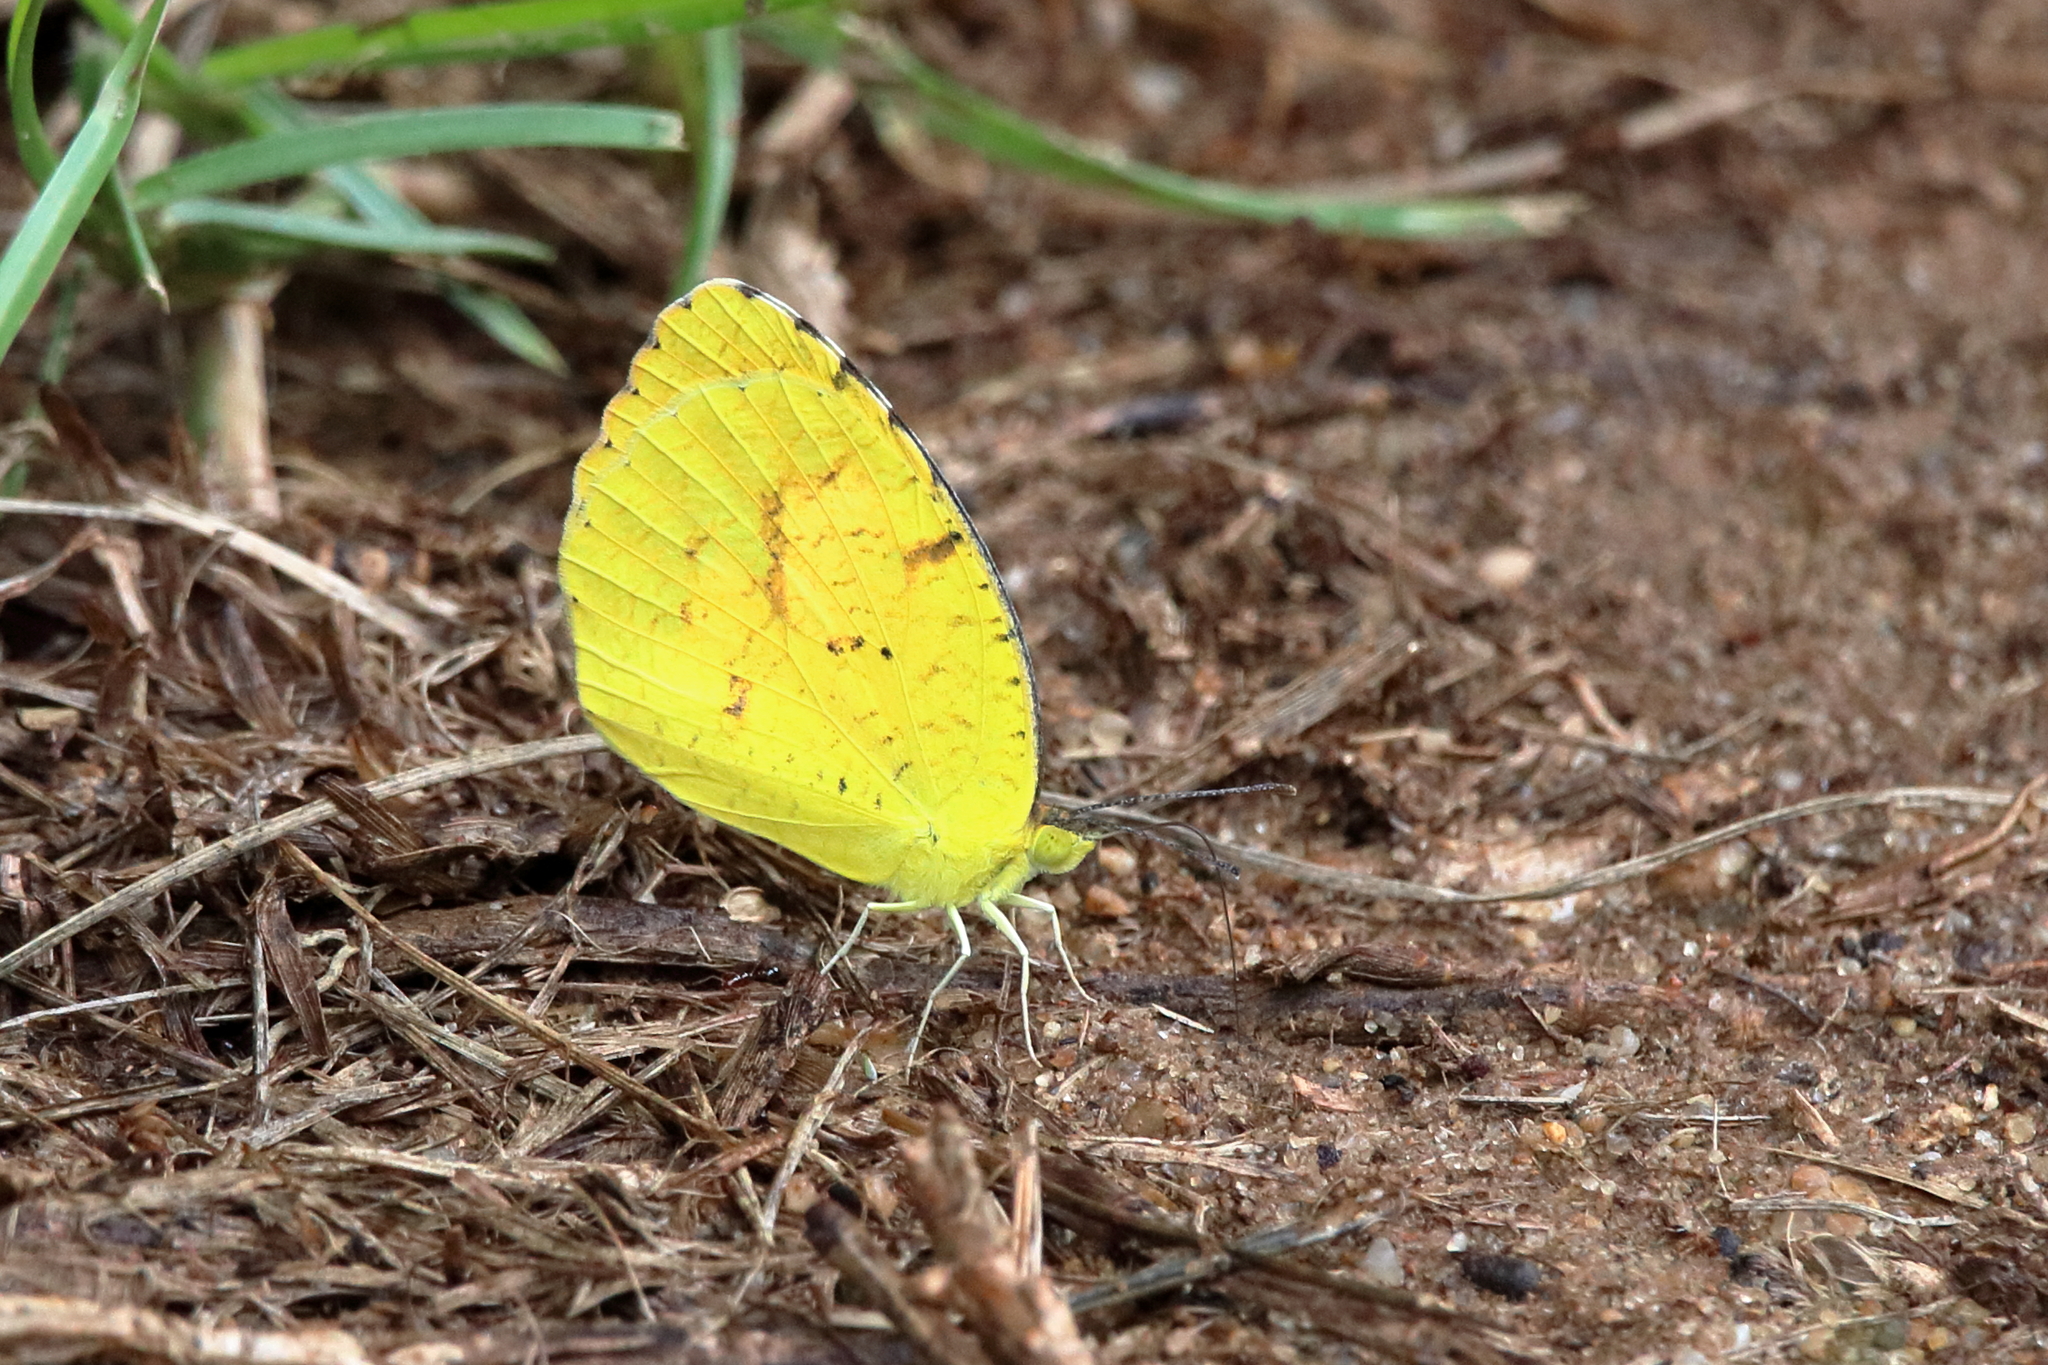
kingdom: Animalia
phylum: Arthropoda
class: Insecta
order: Lepidoptera
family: Pieridae
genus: Abaeis
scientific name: Abaeis nicippe
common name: Sleepy orange
